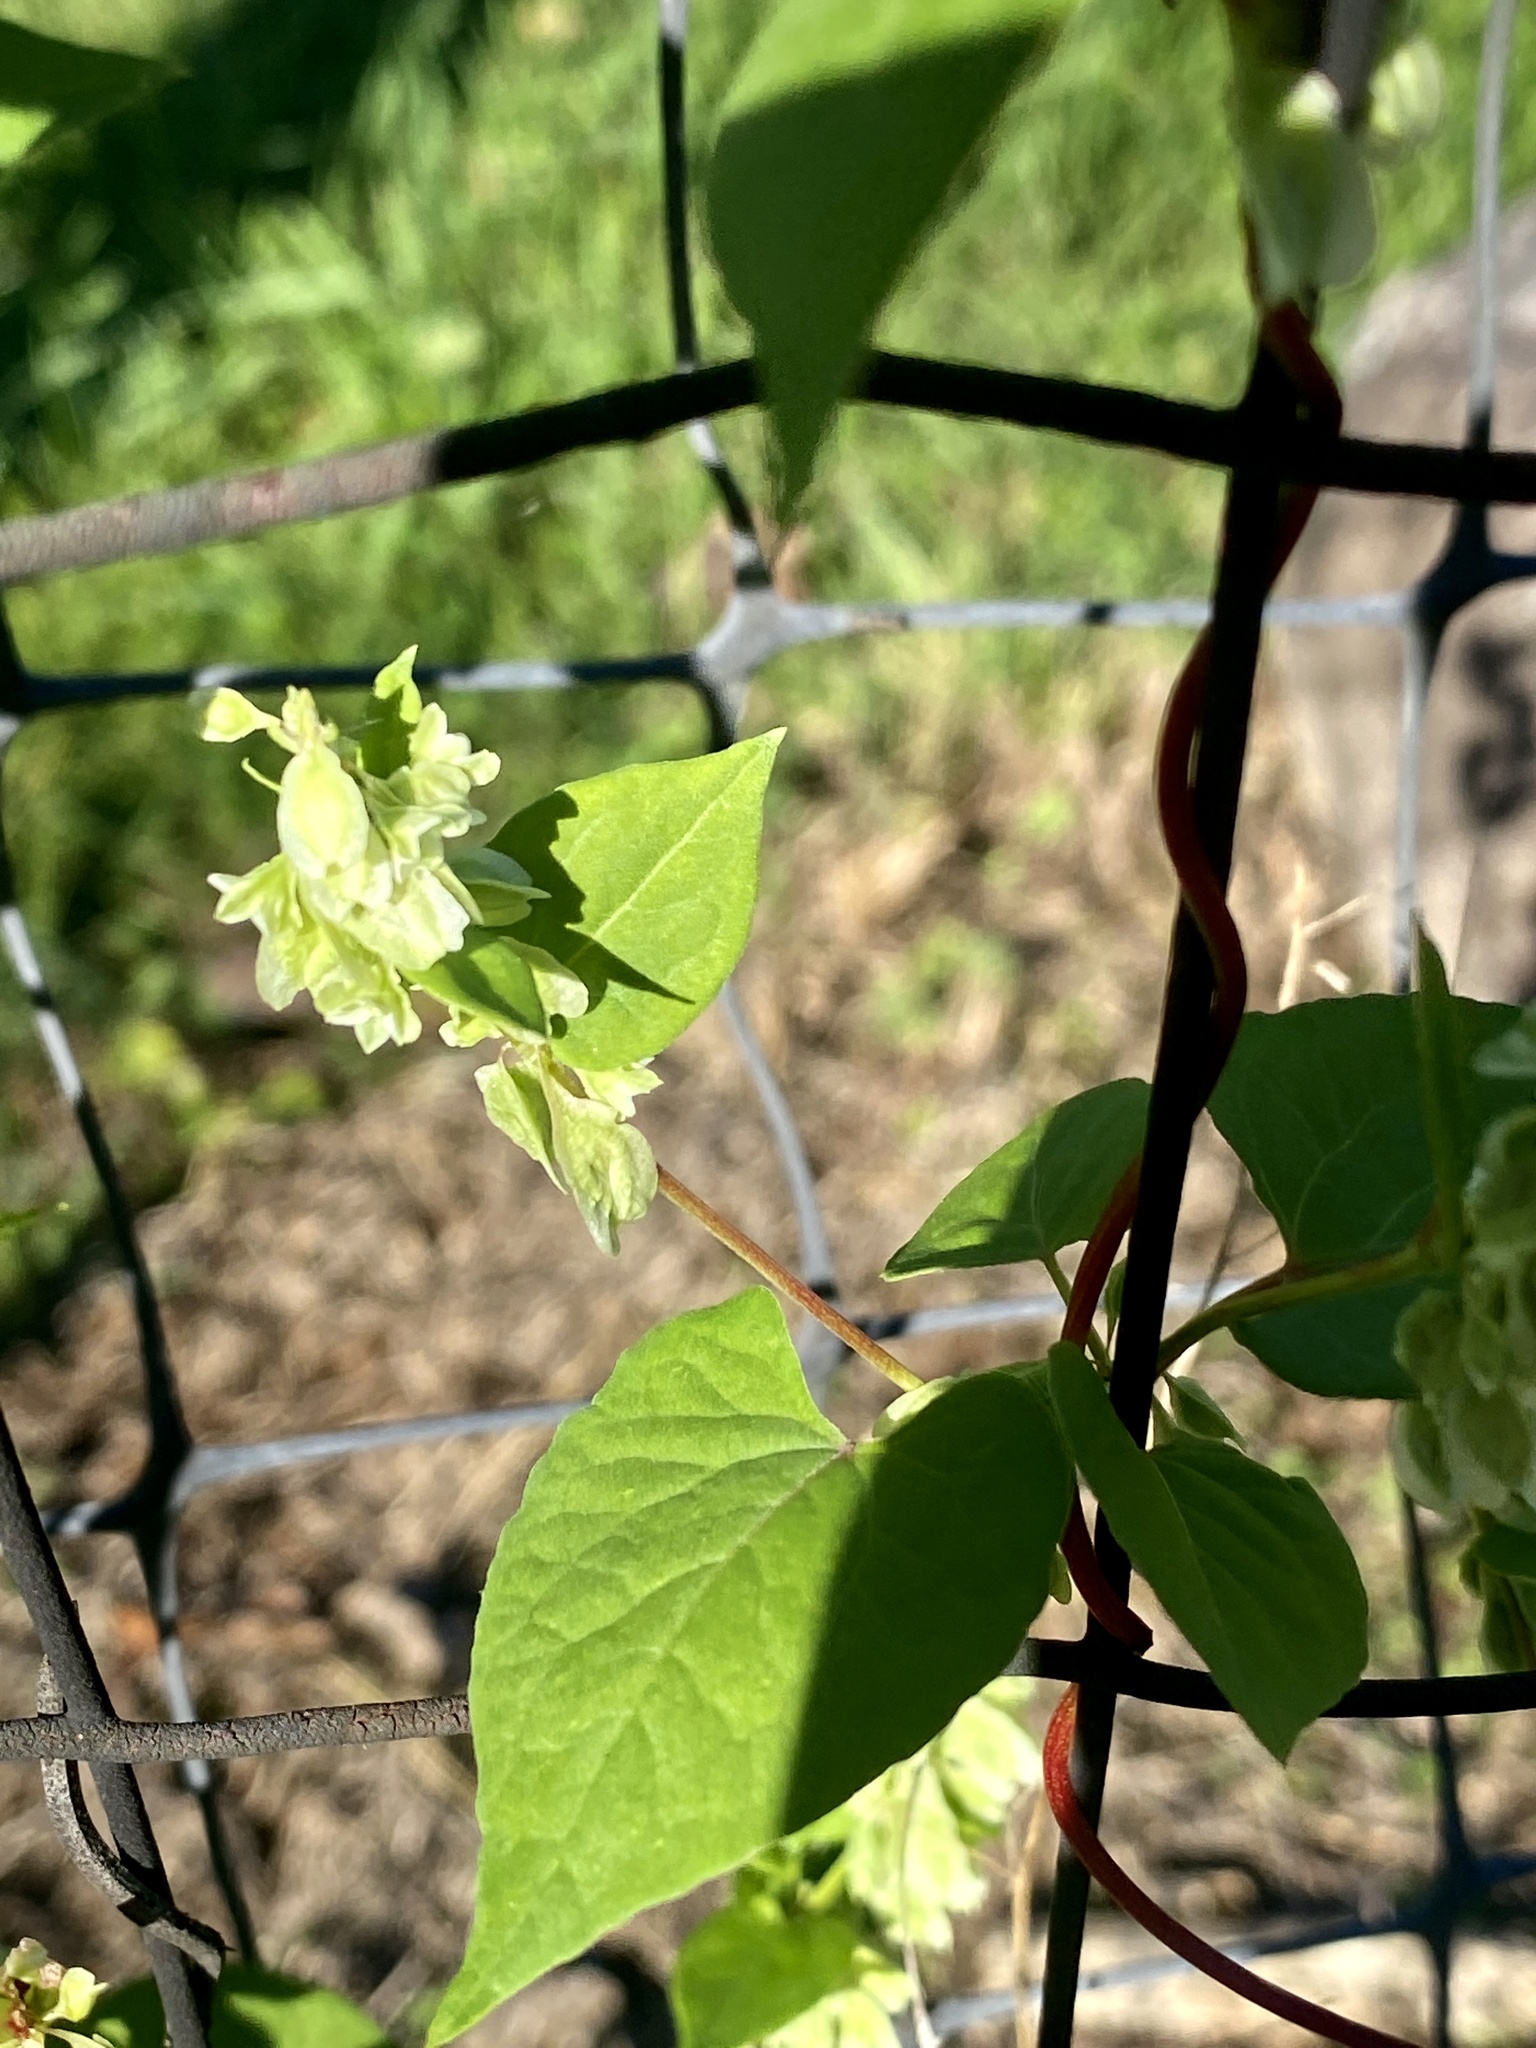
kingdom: Plantae
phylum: Tracheophyta
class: Magnoliopsida
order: Caryophyllales
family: Polygonaceae
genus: Fallopia
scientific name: Fallopia scandens
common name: Climbing false buckwheat
